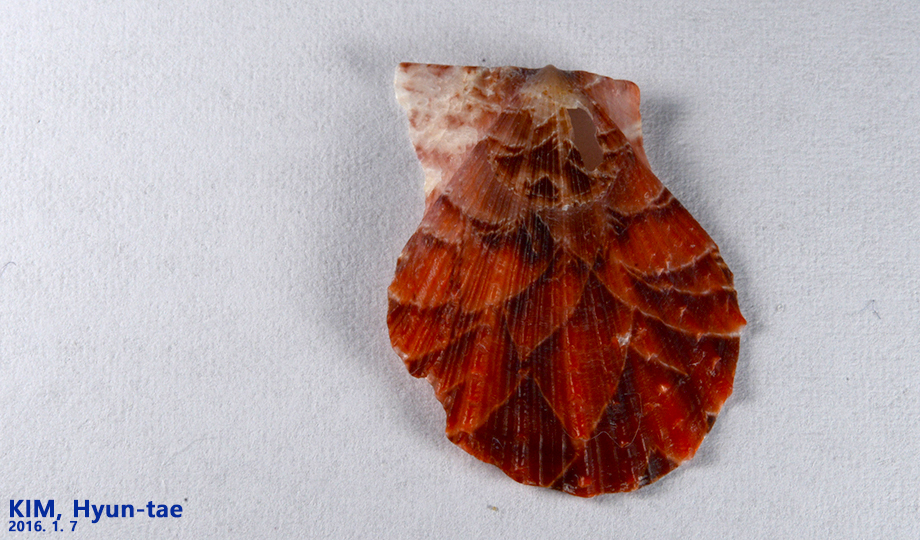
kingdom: Animalia
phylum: Mollusca
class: Bivalvia
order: Pectinida
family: Pectinidae
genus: Scaeochlamys
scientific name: Scaeochlamys lemniscata
